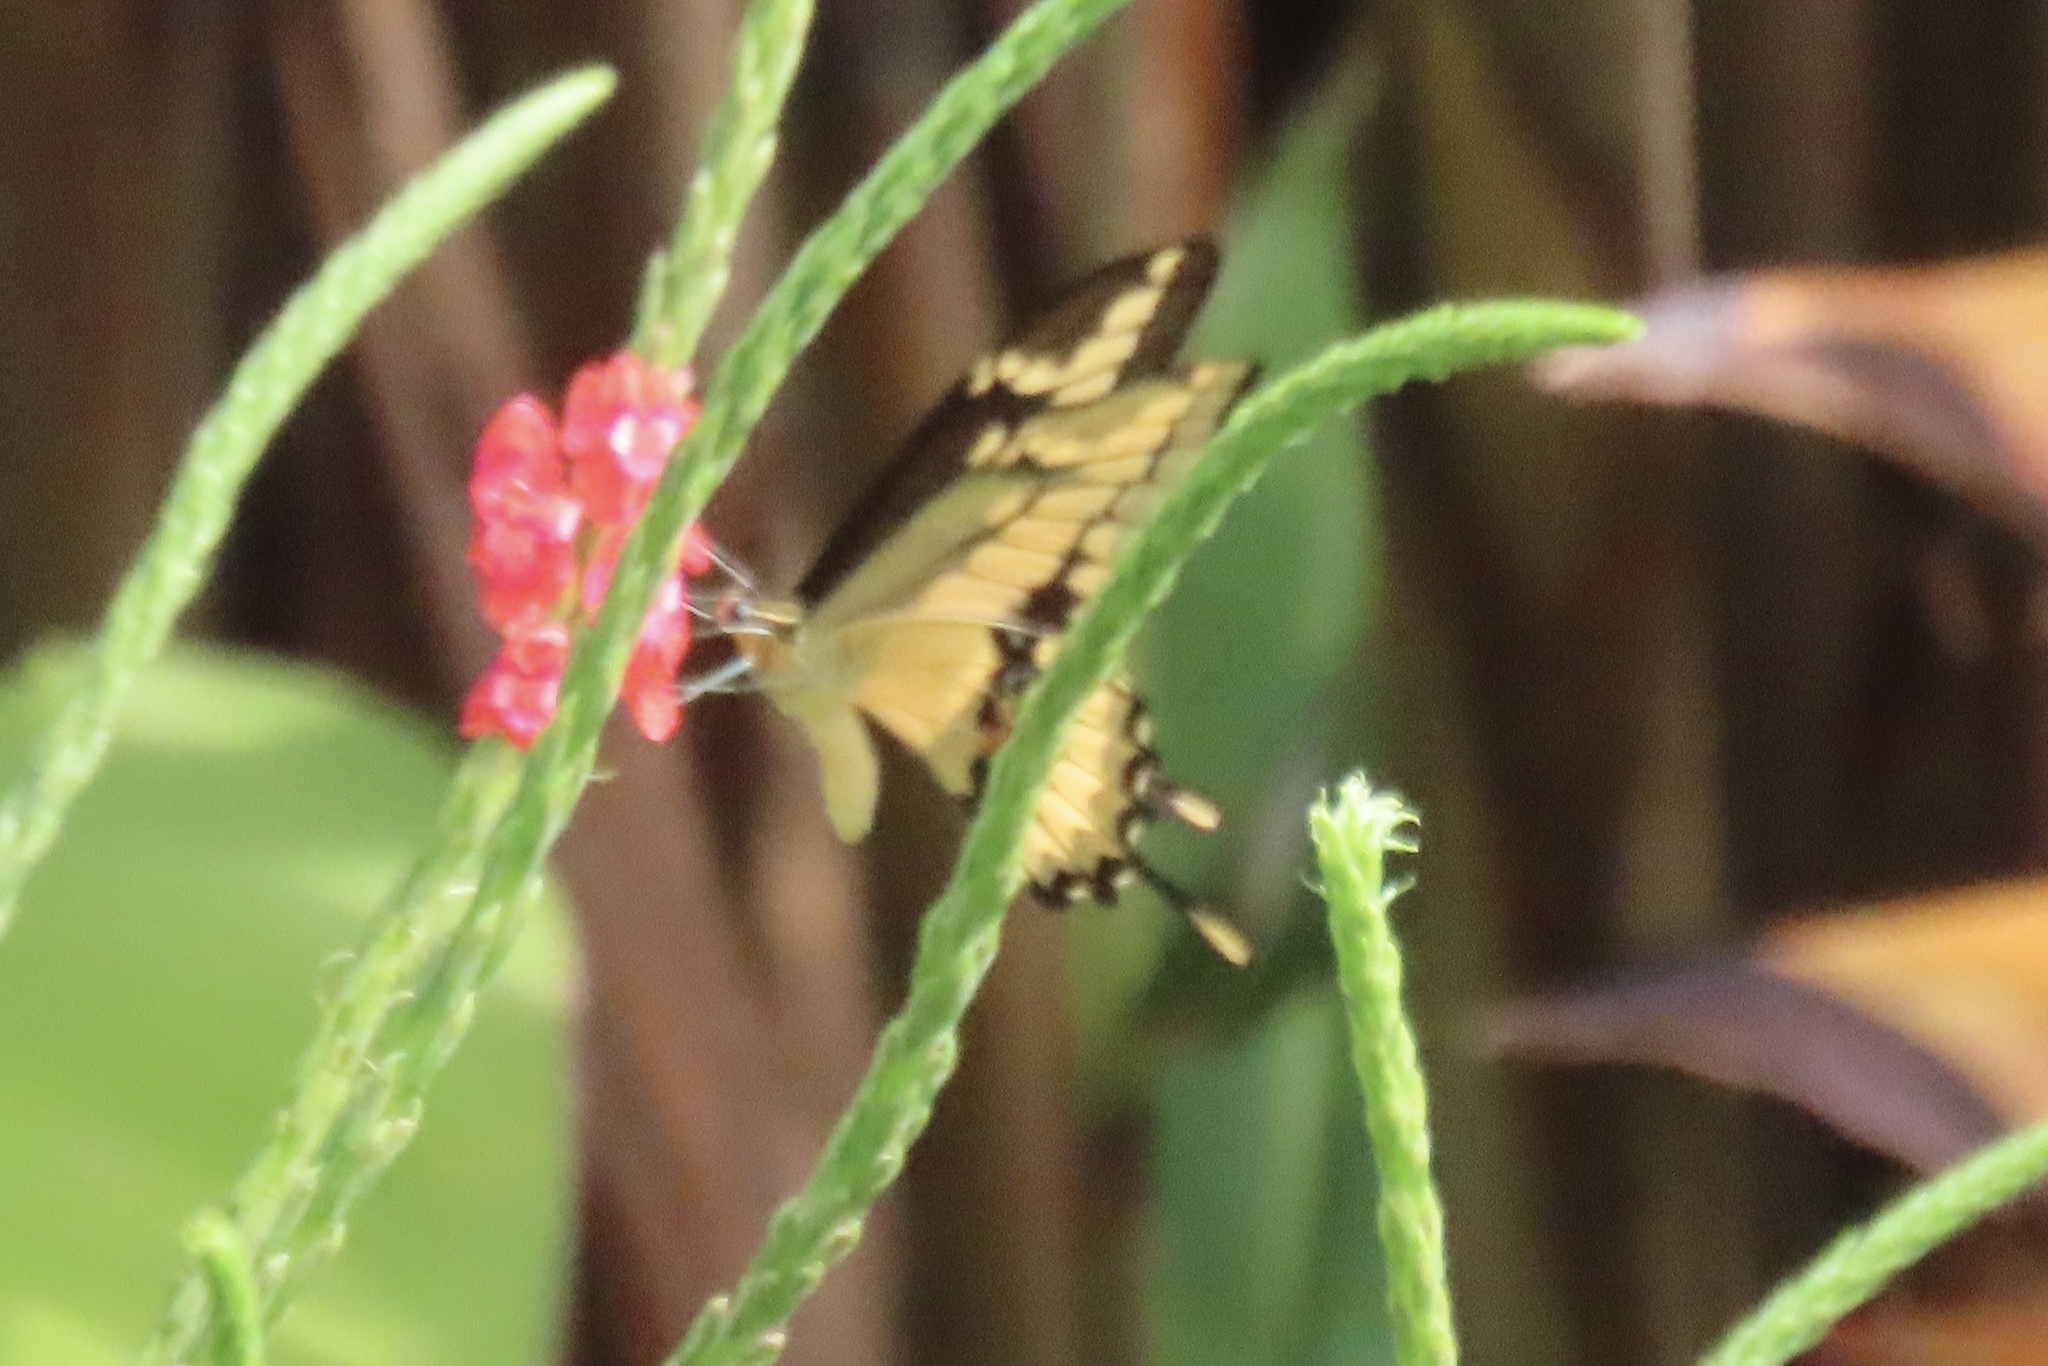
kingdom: Animalia
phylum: Arthropoda
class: Insecta
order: Lepidoptera
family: Papilionidae
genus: Papilio
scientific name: Papilio thoas
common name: King swallowtail
